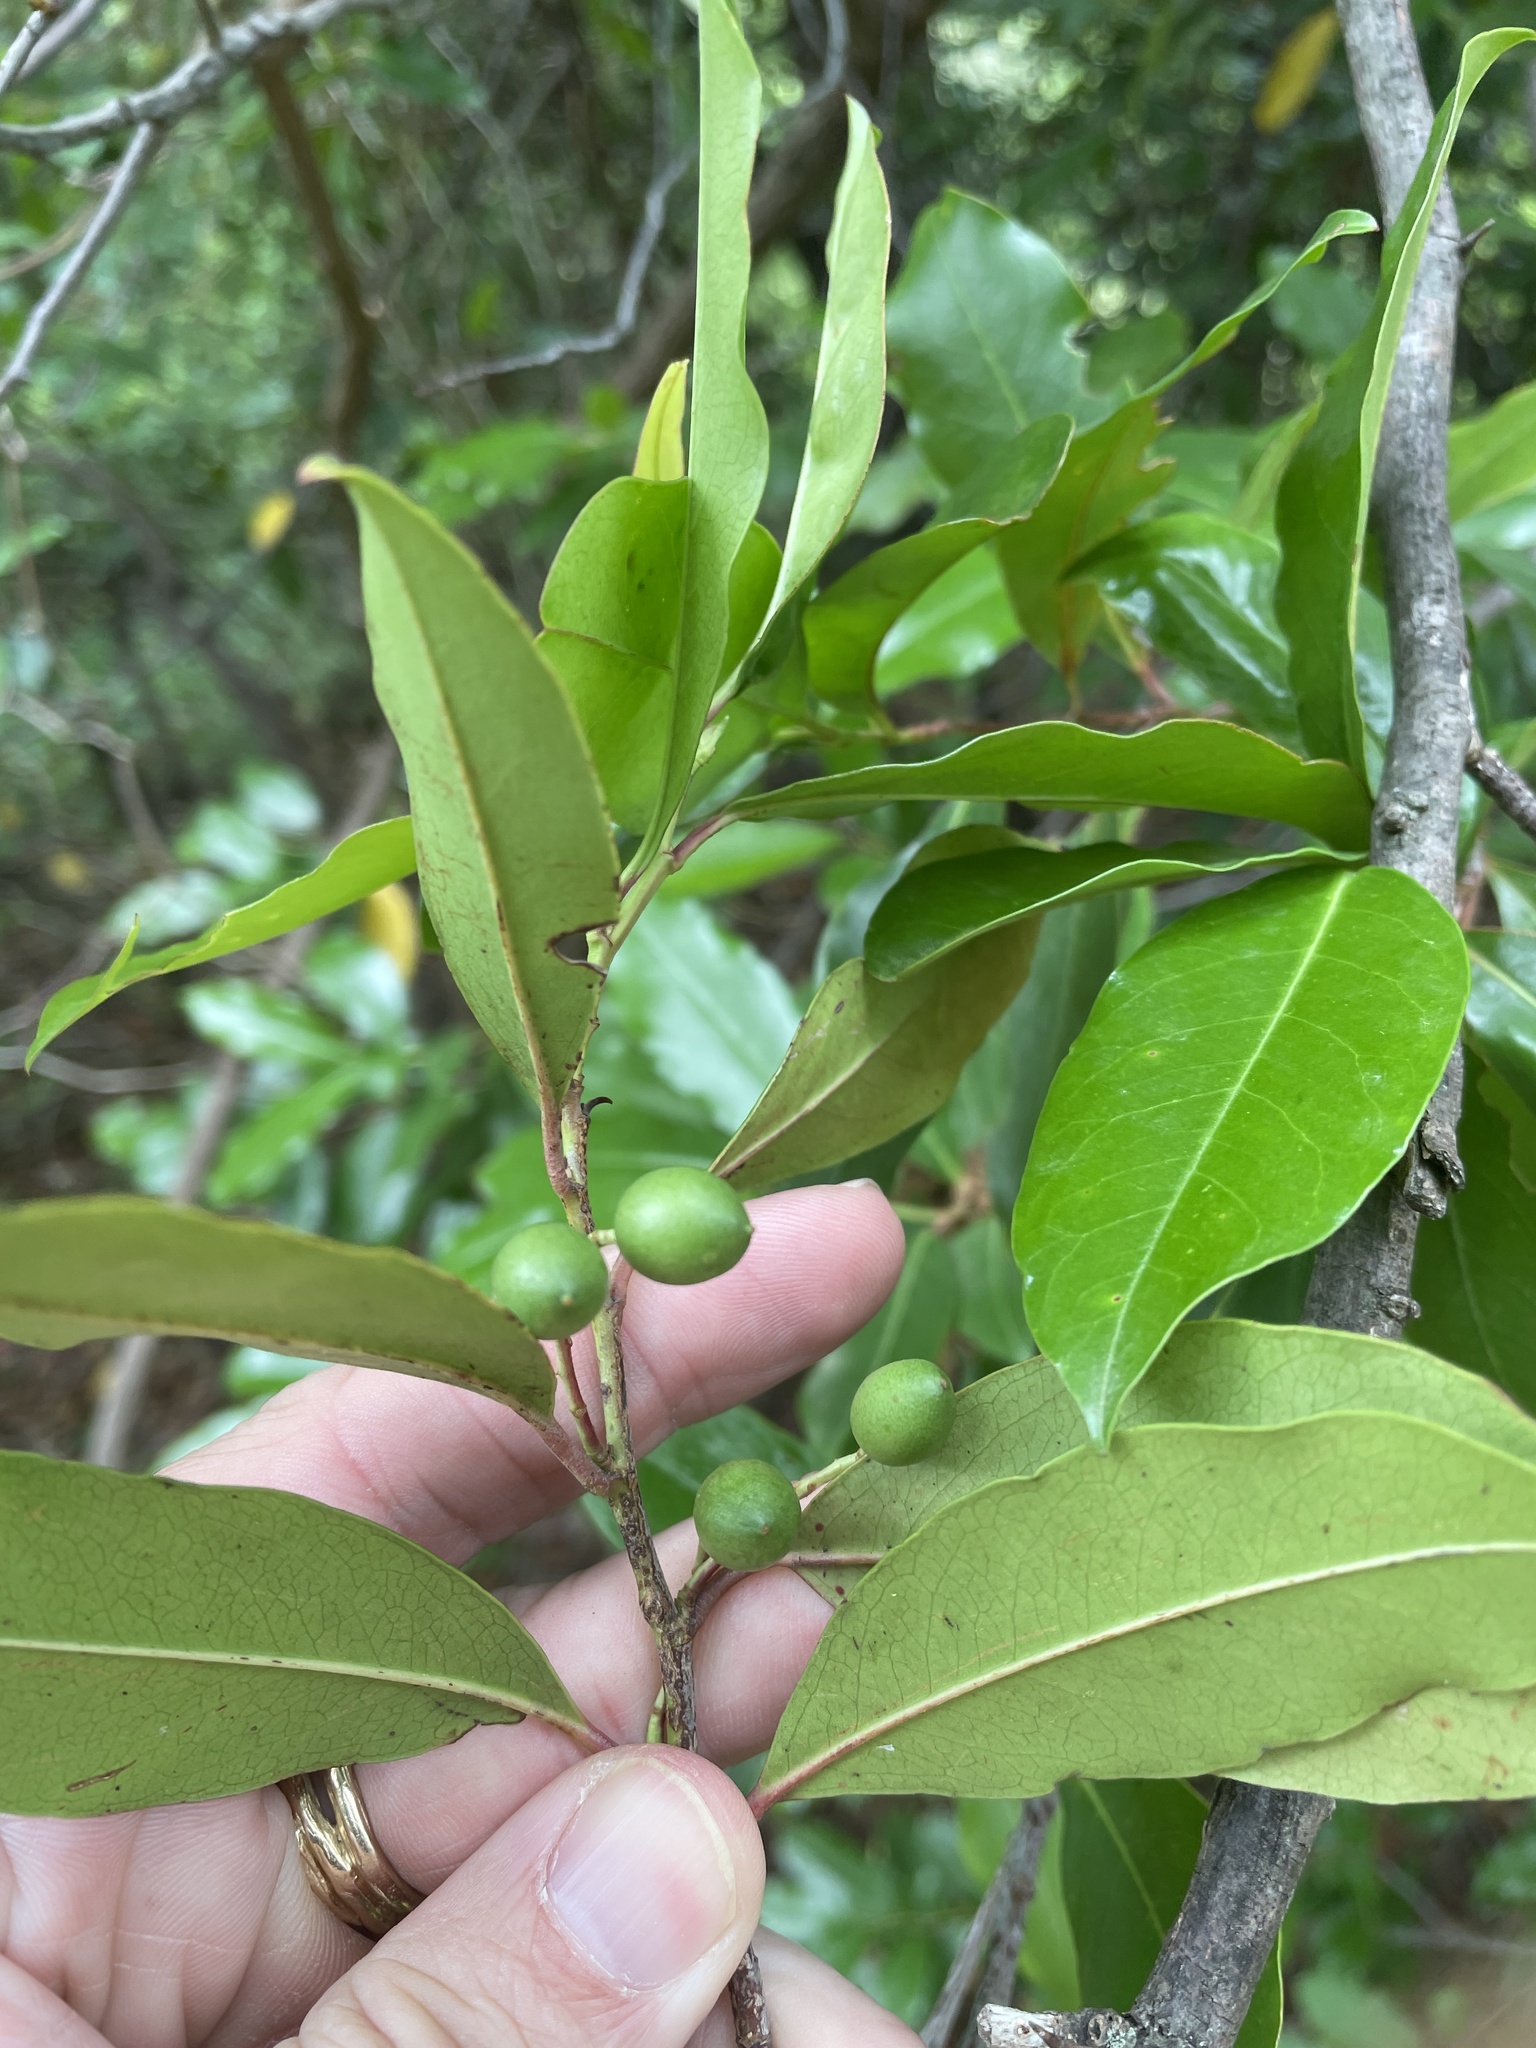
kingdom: Plantae
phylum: Tracheophyta
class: Magnoliopsida
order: Rosales
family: Rosaceae
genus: Prunus
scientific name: Prunus caroliniana
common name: Carolina laurel cherry
